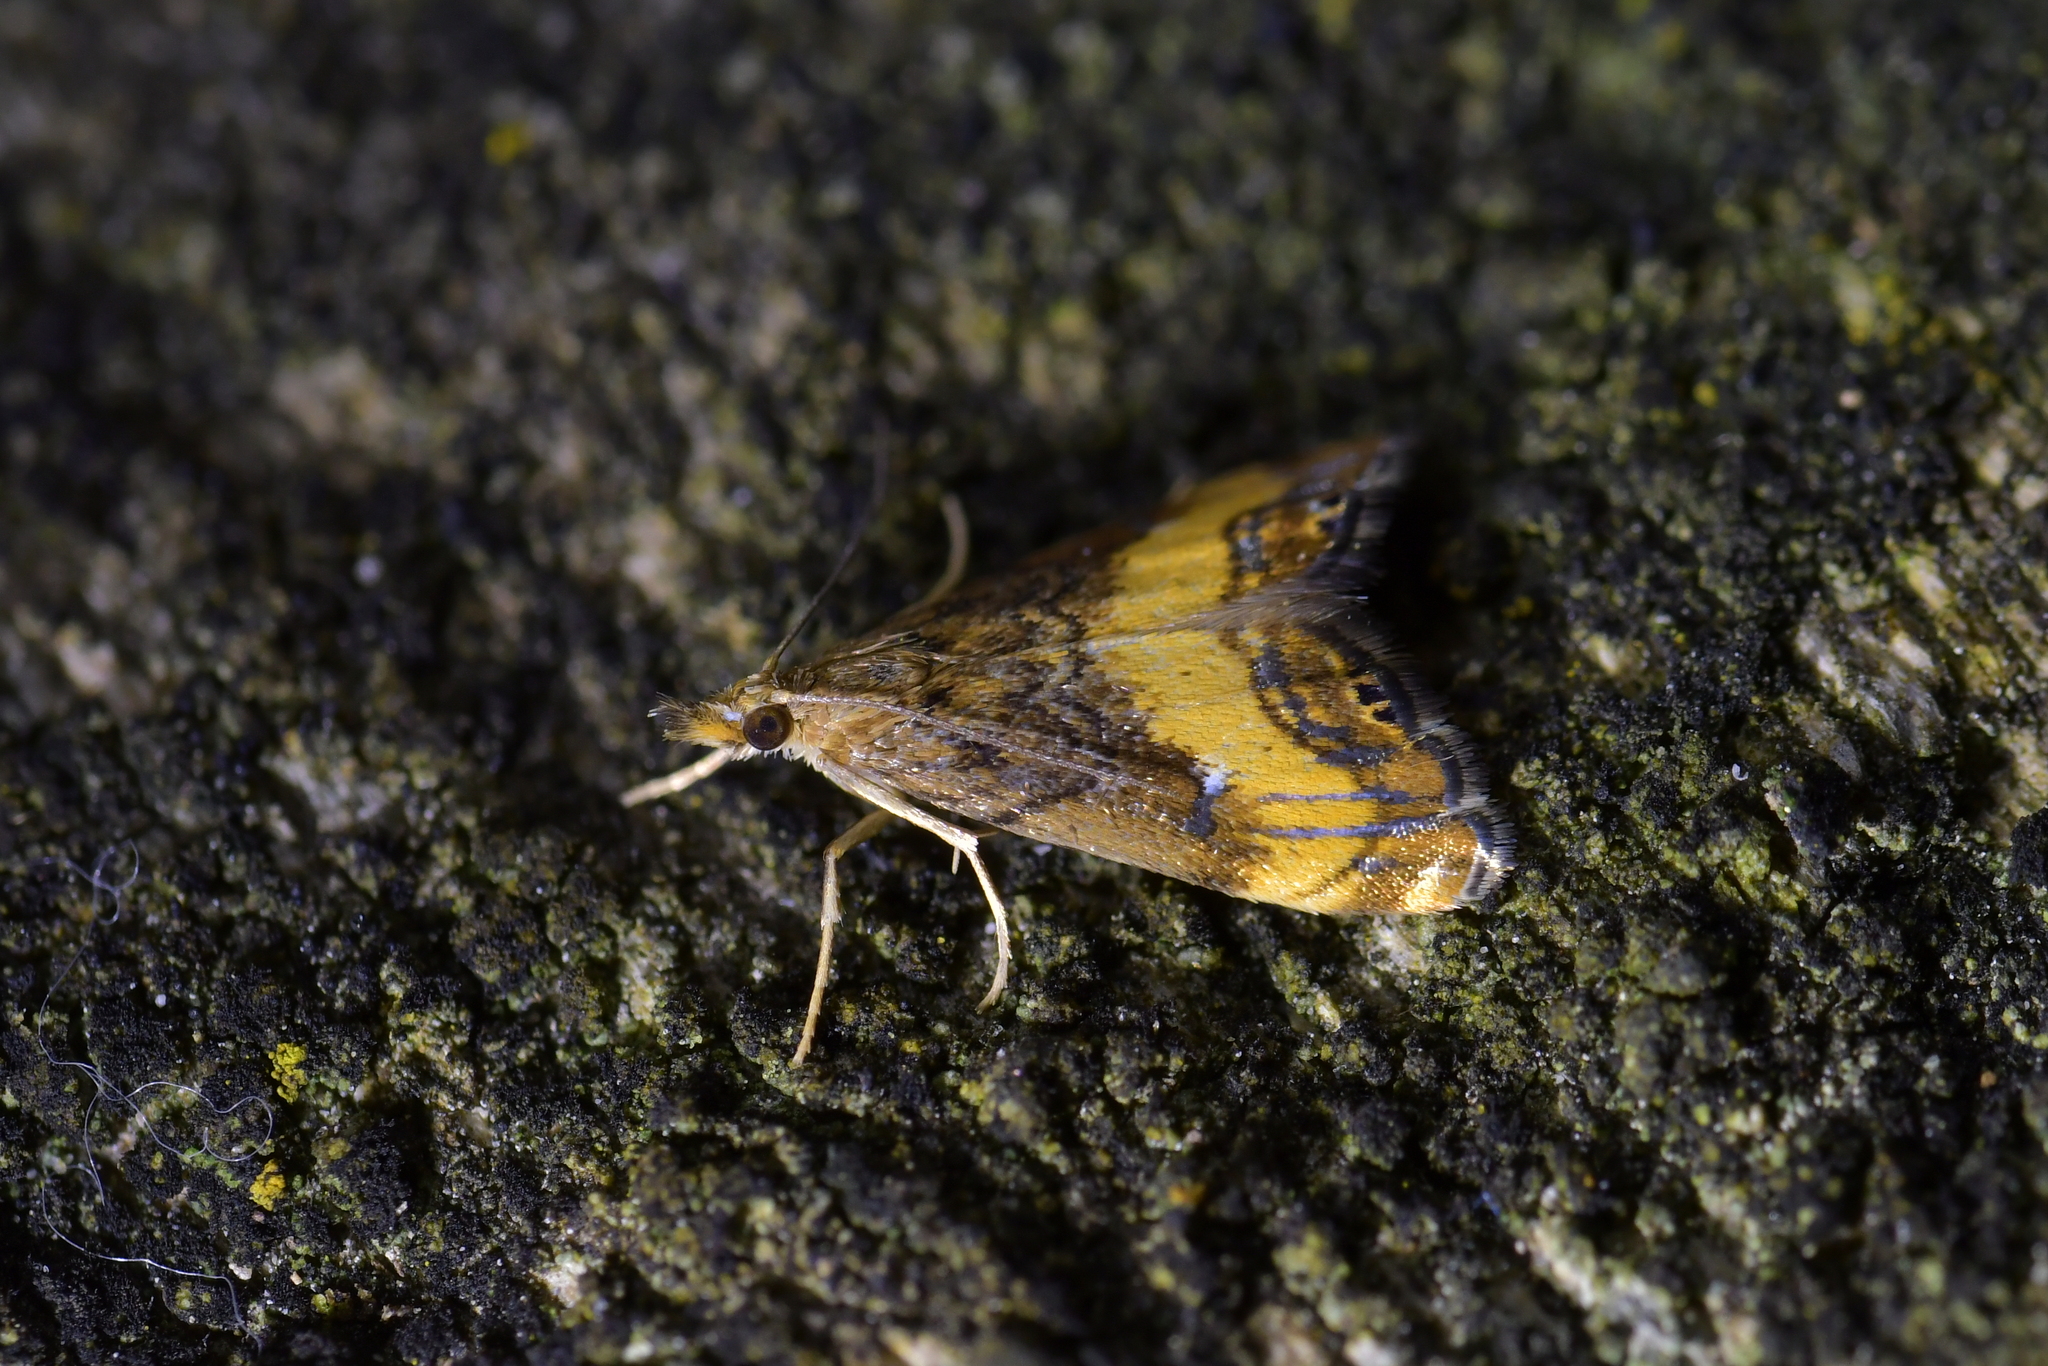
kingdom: Animalia
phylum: Arthropoda
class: Insecta
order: Lepidoptera
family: Crambidae
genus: Glaucocharis
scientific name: Glaucocharis chrysochyta
